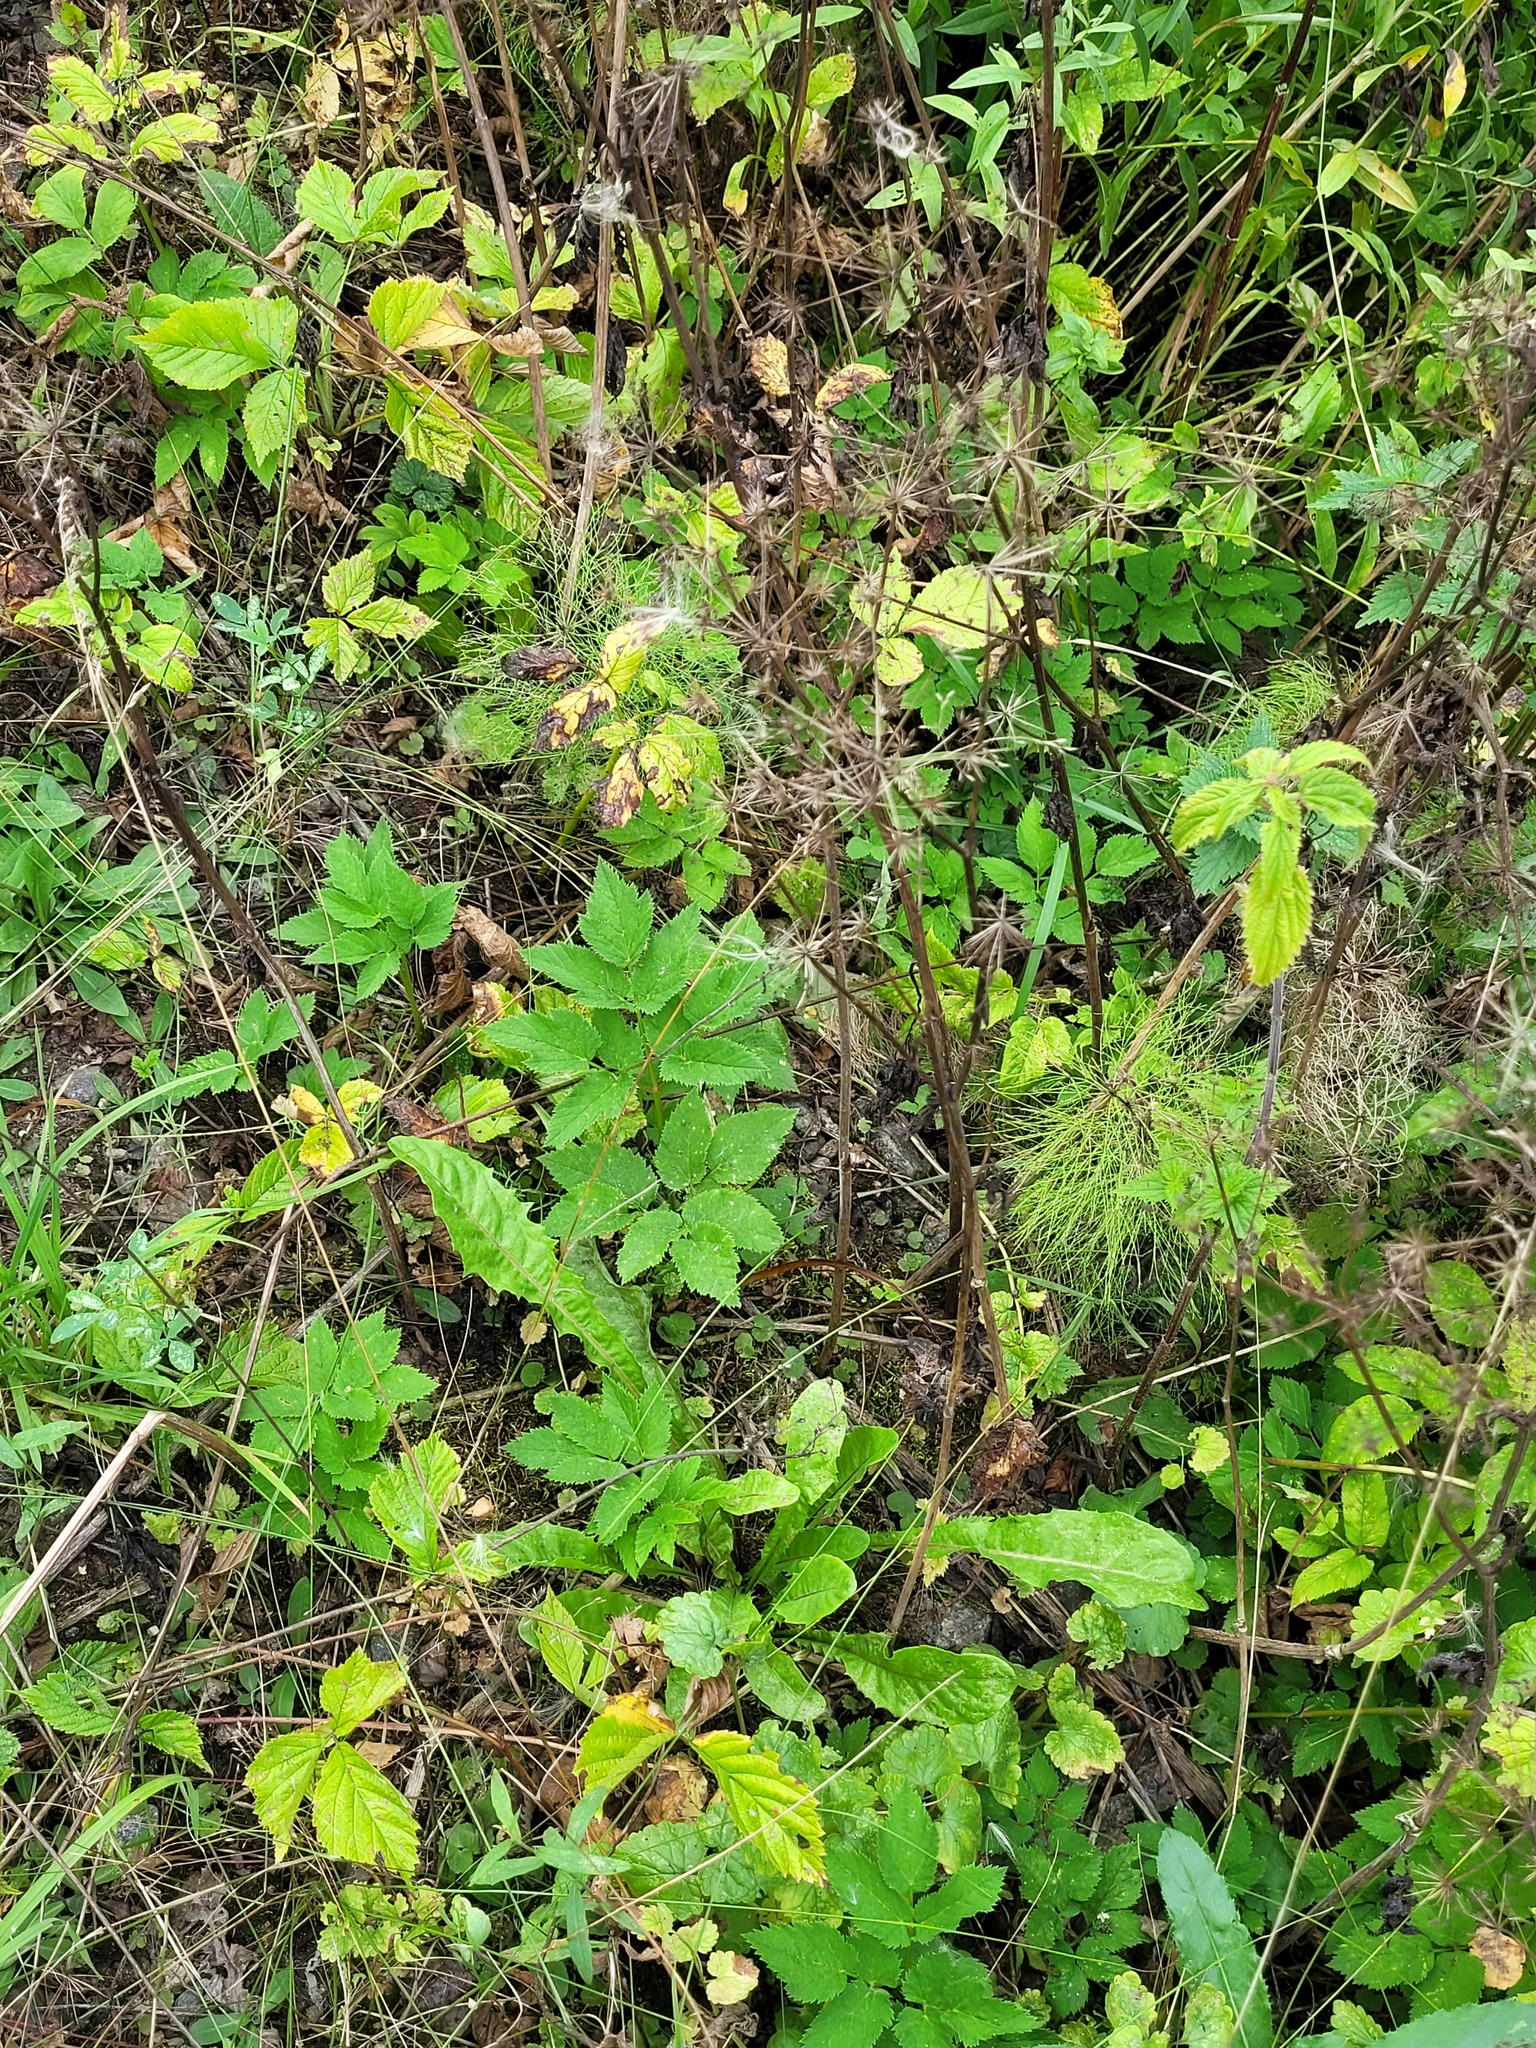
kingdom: Plantae
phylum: Tracheophyta
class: Magnoliopsida
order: Apiales
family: Apiaceae
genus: Aegopodium
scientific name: Aegopodium podagraria
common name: Ground-elder
